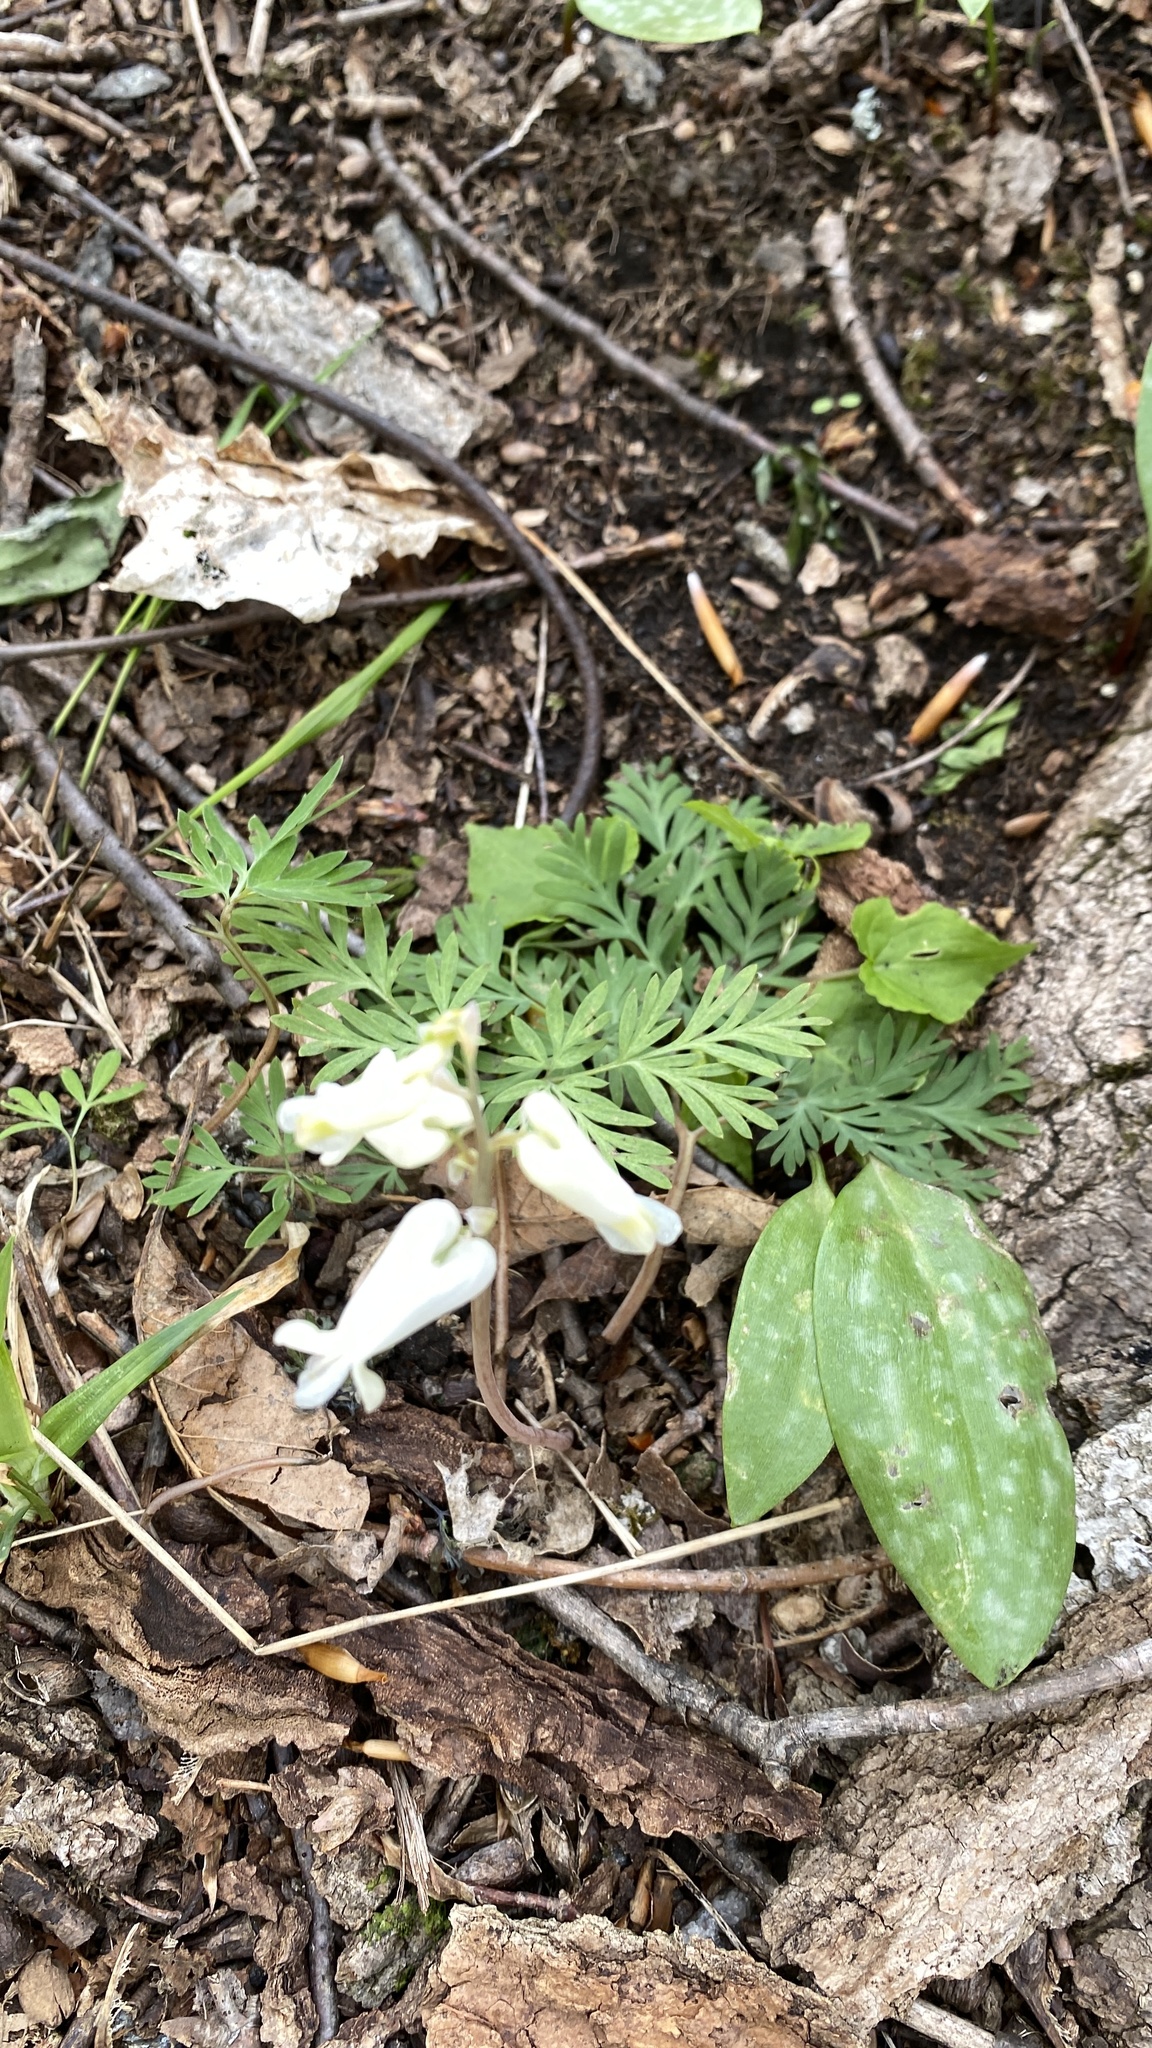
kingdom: Plantae
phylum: Tracheophyta
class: Magnoliopsida
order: Ranunculales
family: Papaveraceae
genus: Dicentra
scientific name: Dicentra canadensis
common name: Squirrel-corn
